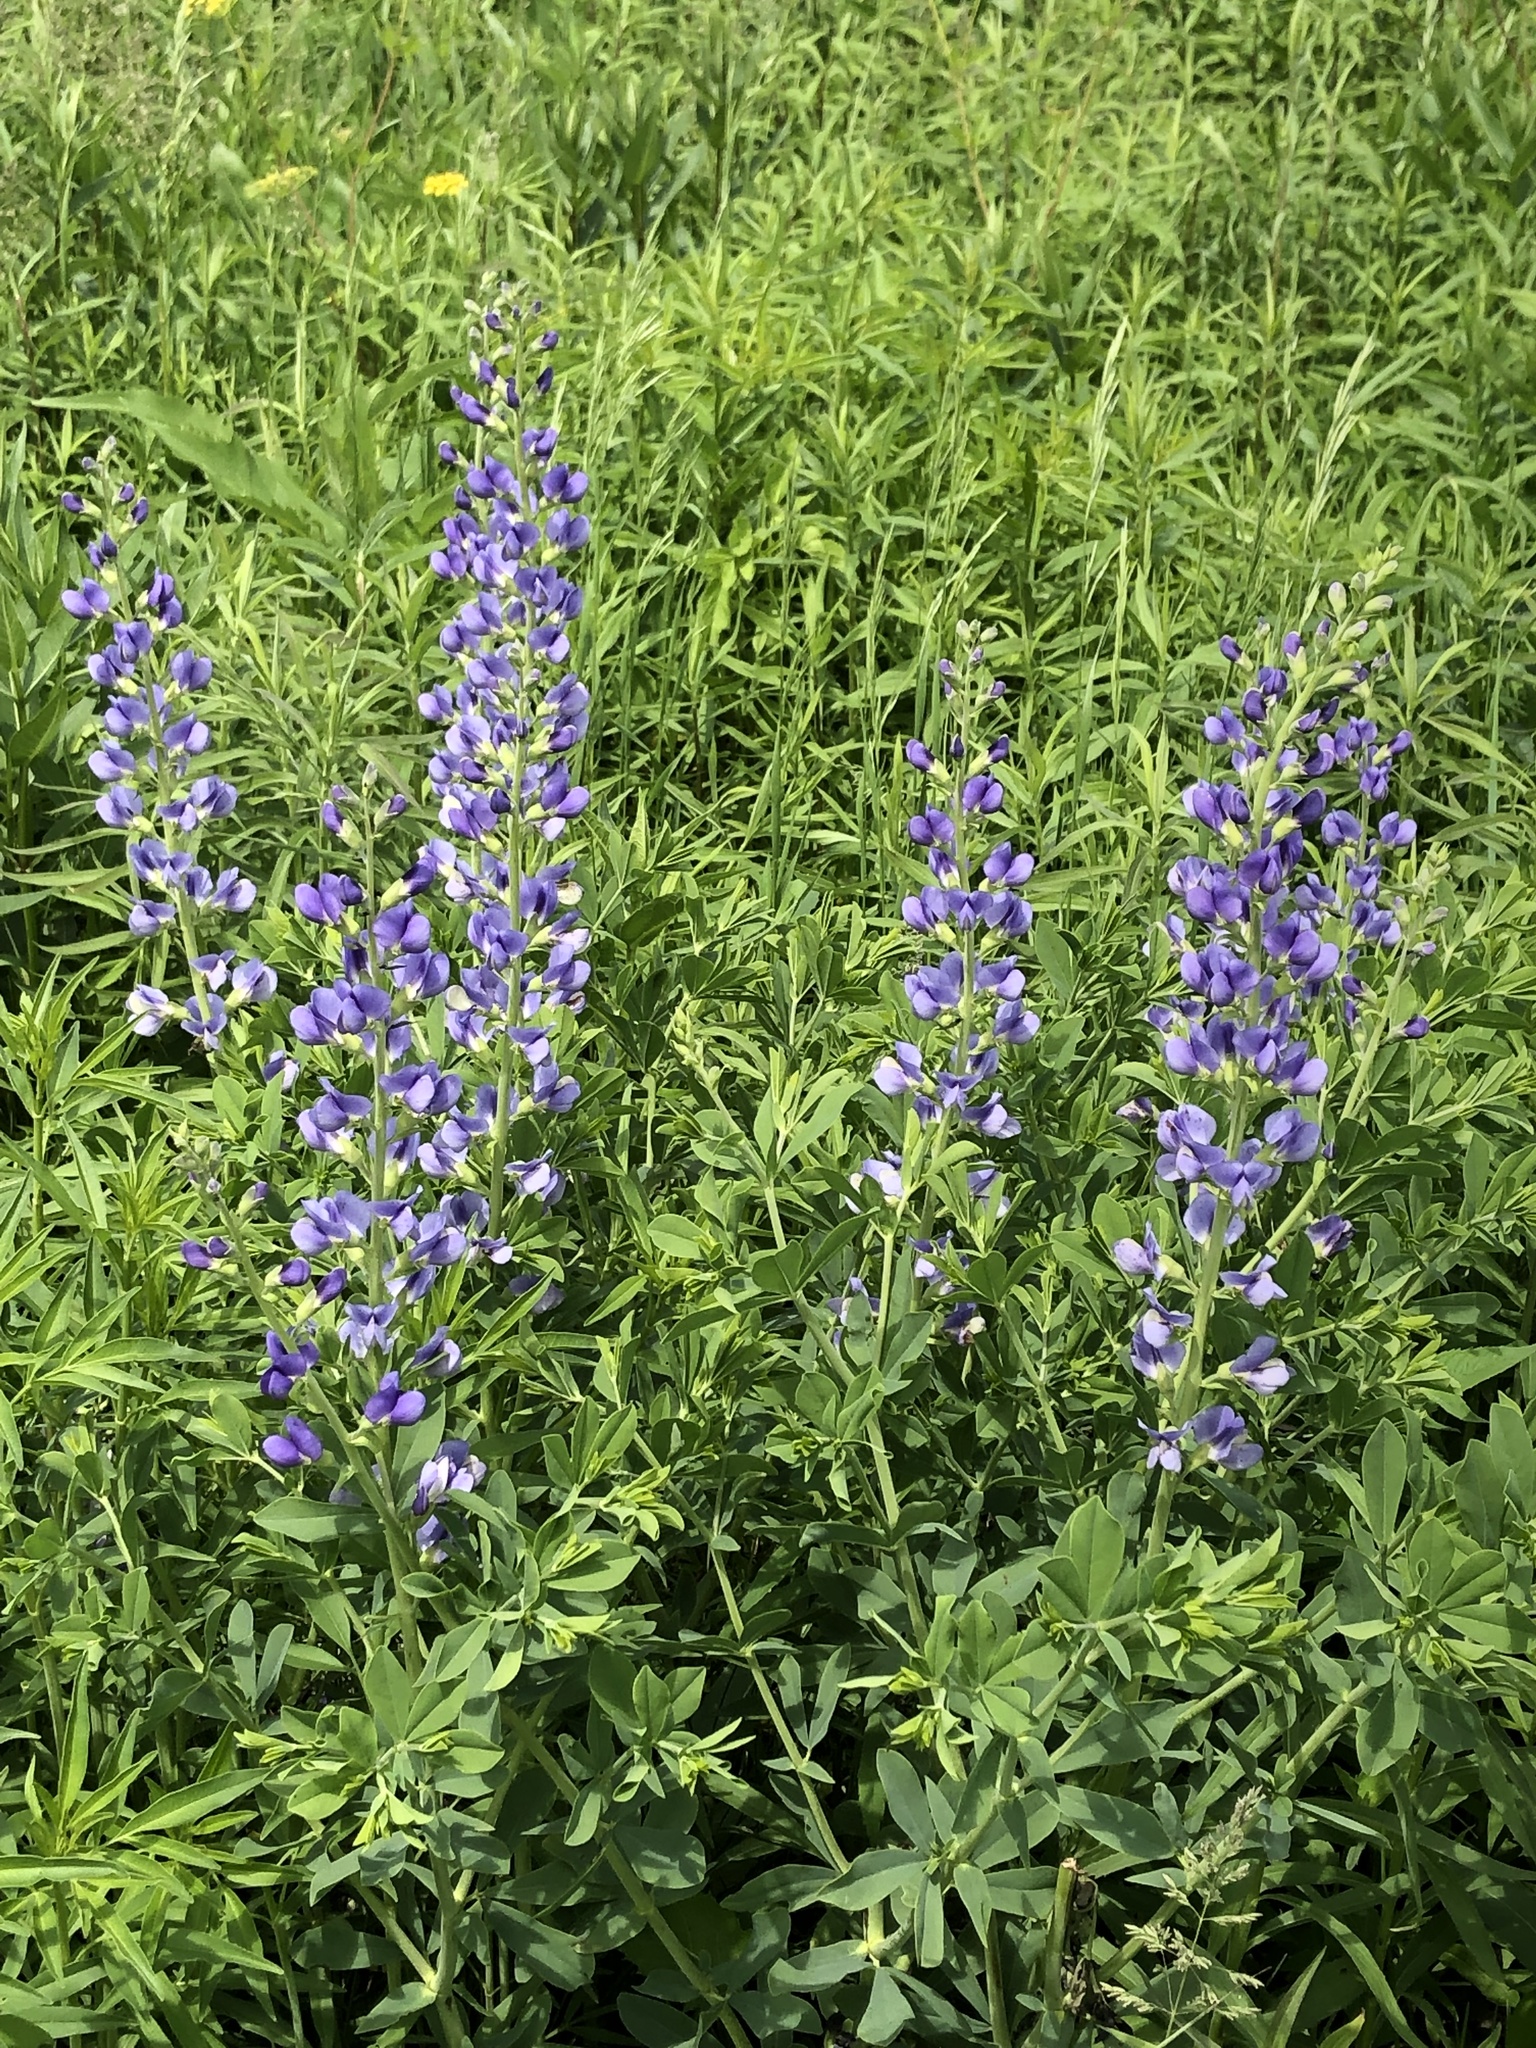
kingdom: Plantae
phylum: Tracheophyta
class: Magnoliopsida
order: Fabales
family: Fabaceae
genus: Baptisia
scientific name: Baptisia australis
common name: Blue false indigo
